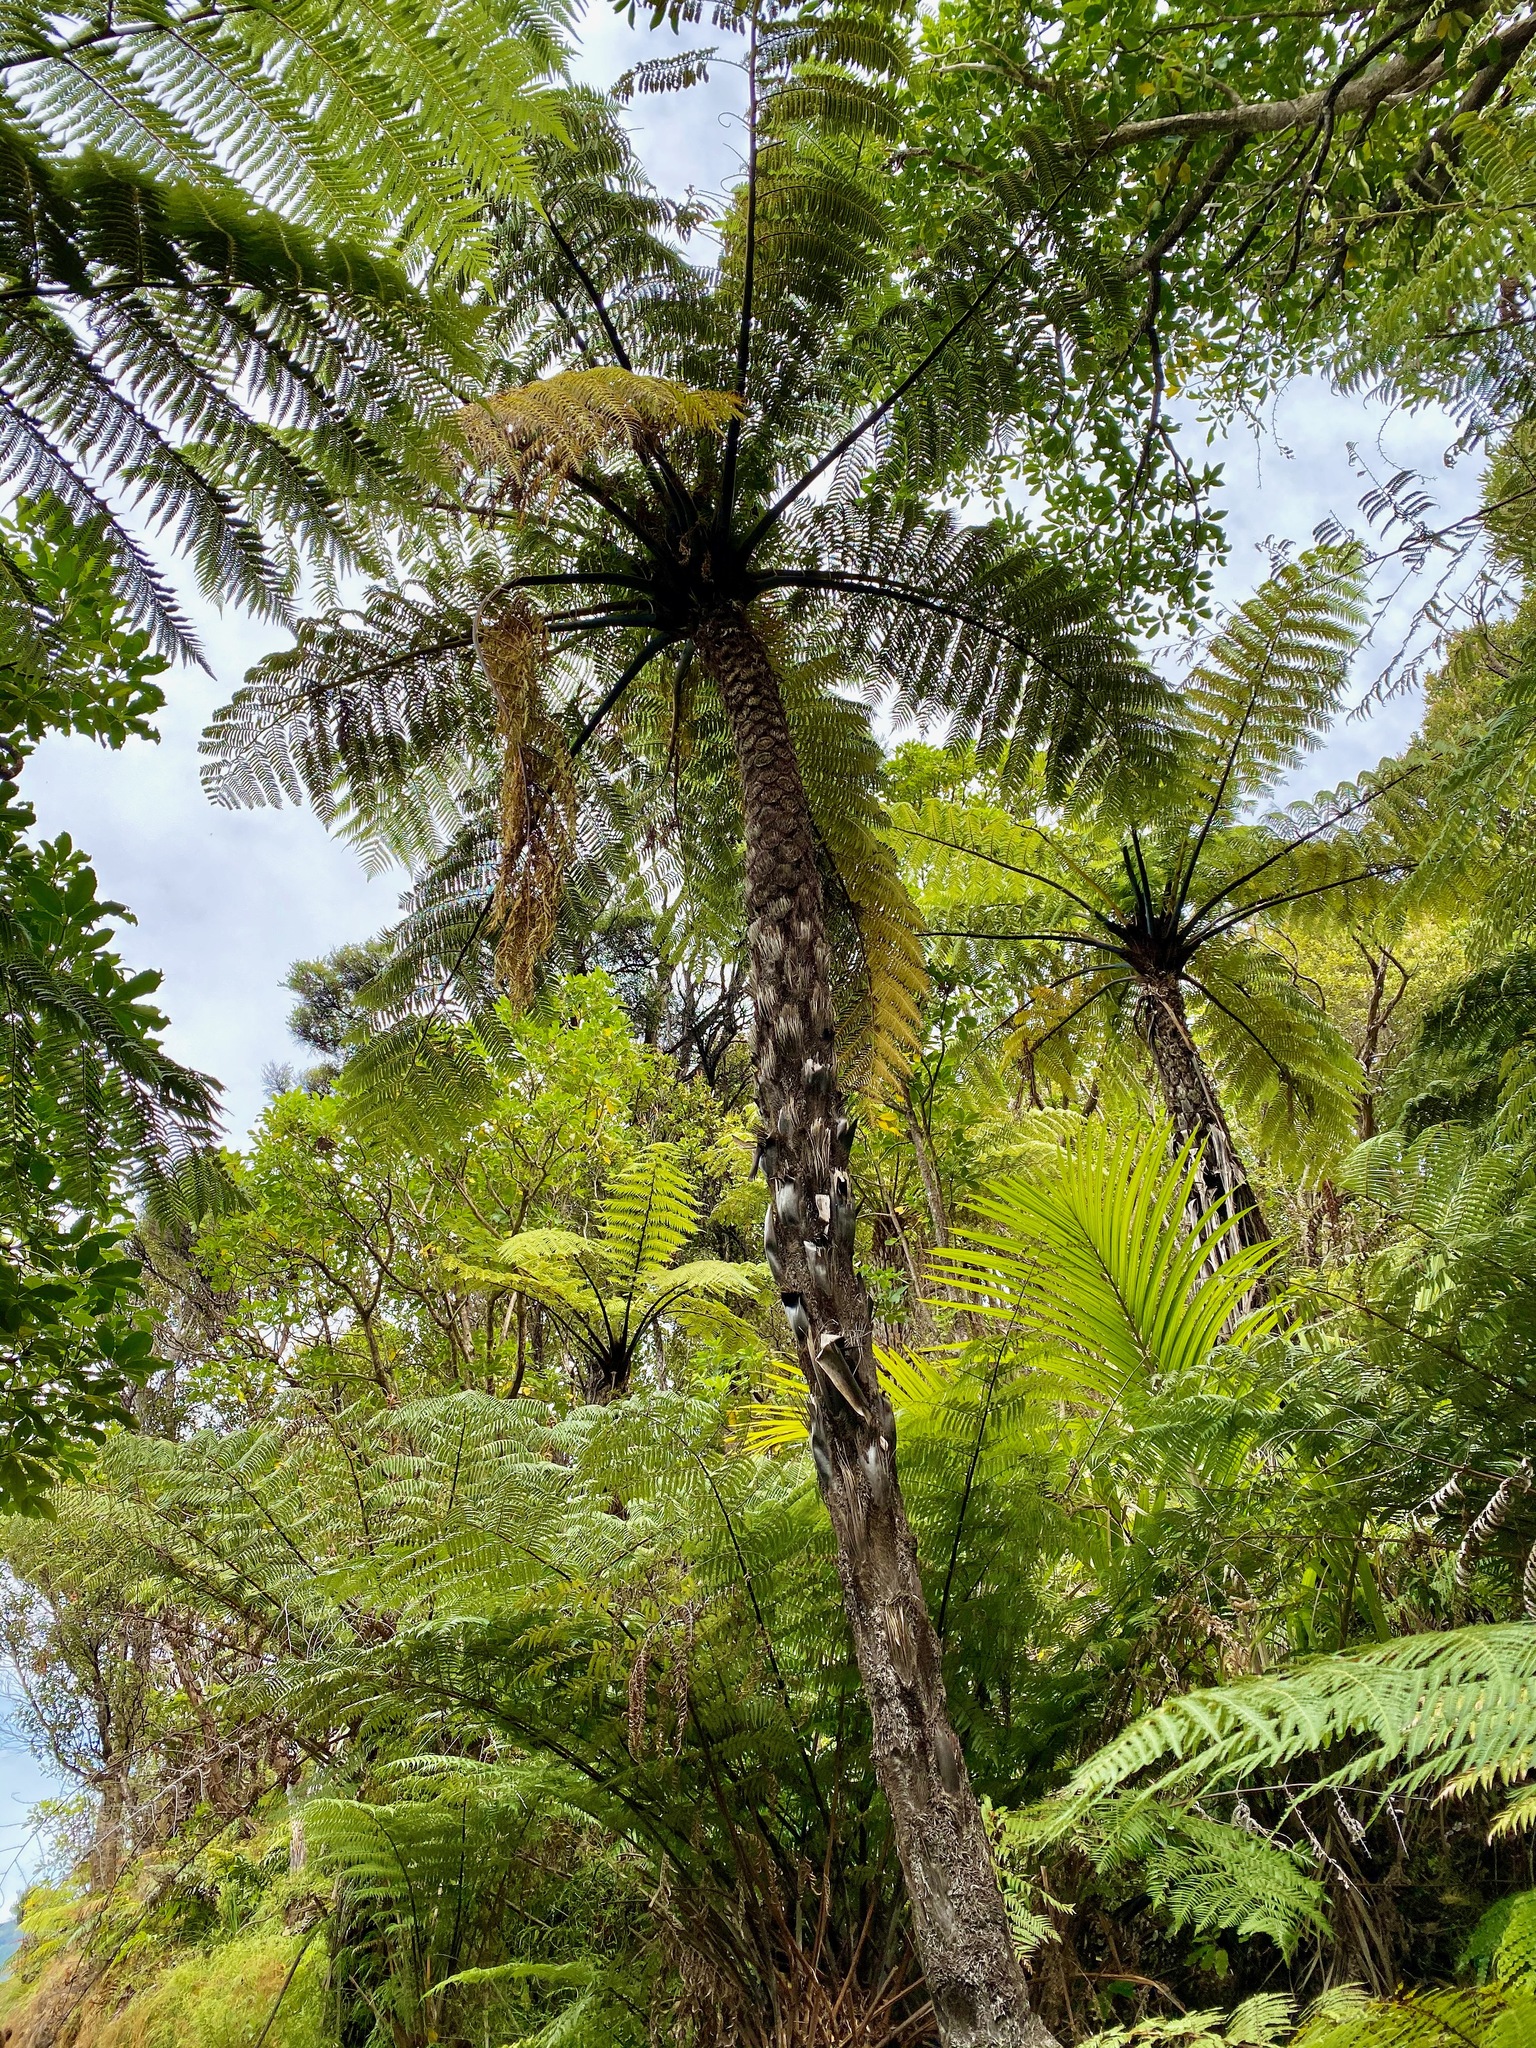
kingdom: Plantae
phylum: Tracheophyta
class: Polypodiopsida
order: Cyatheales
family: Cyatheaceae
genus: Sphaeropteris
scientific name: Sphaeropteris medullaris
